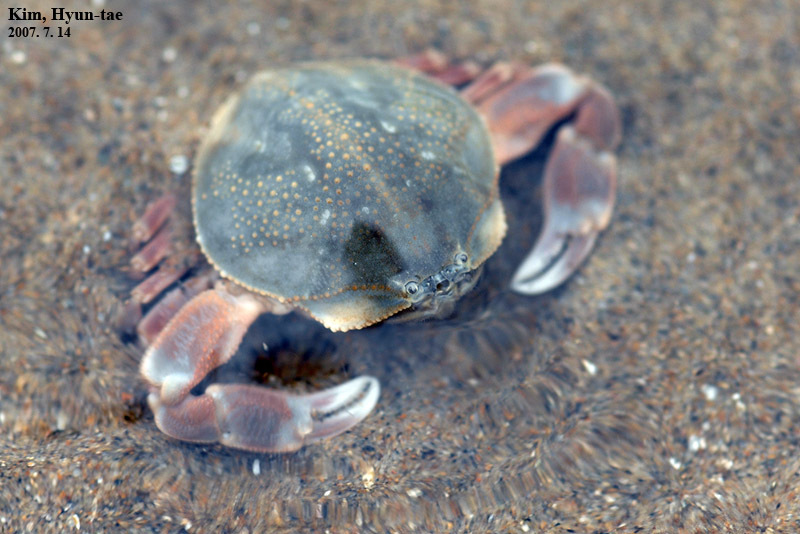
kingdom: Animalia
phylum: Arthropoda
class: Malacostraca
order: Decapoda
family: Leucosiidae
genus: Pyrhila
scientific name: Pyrhila pisum
